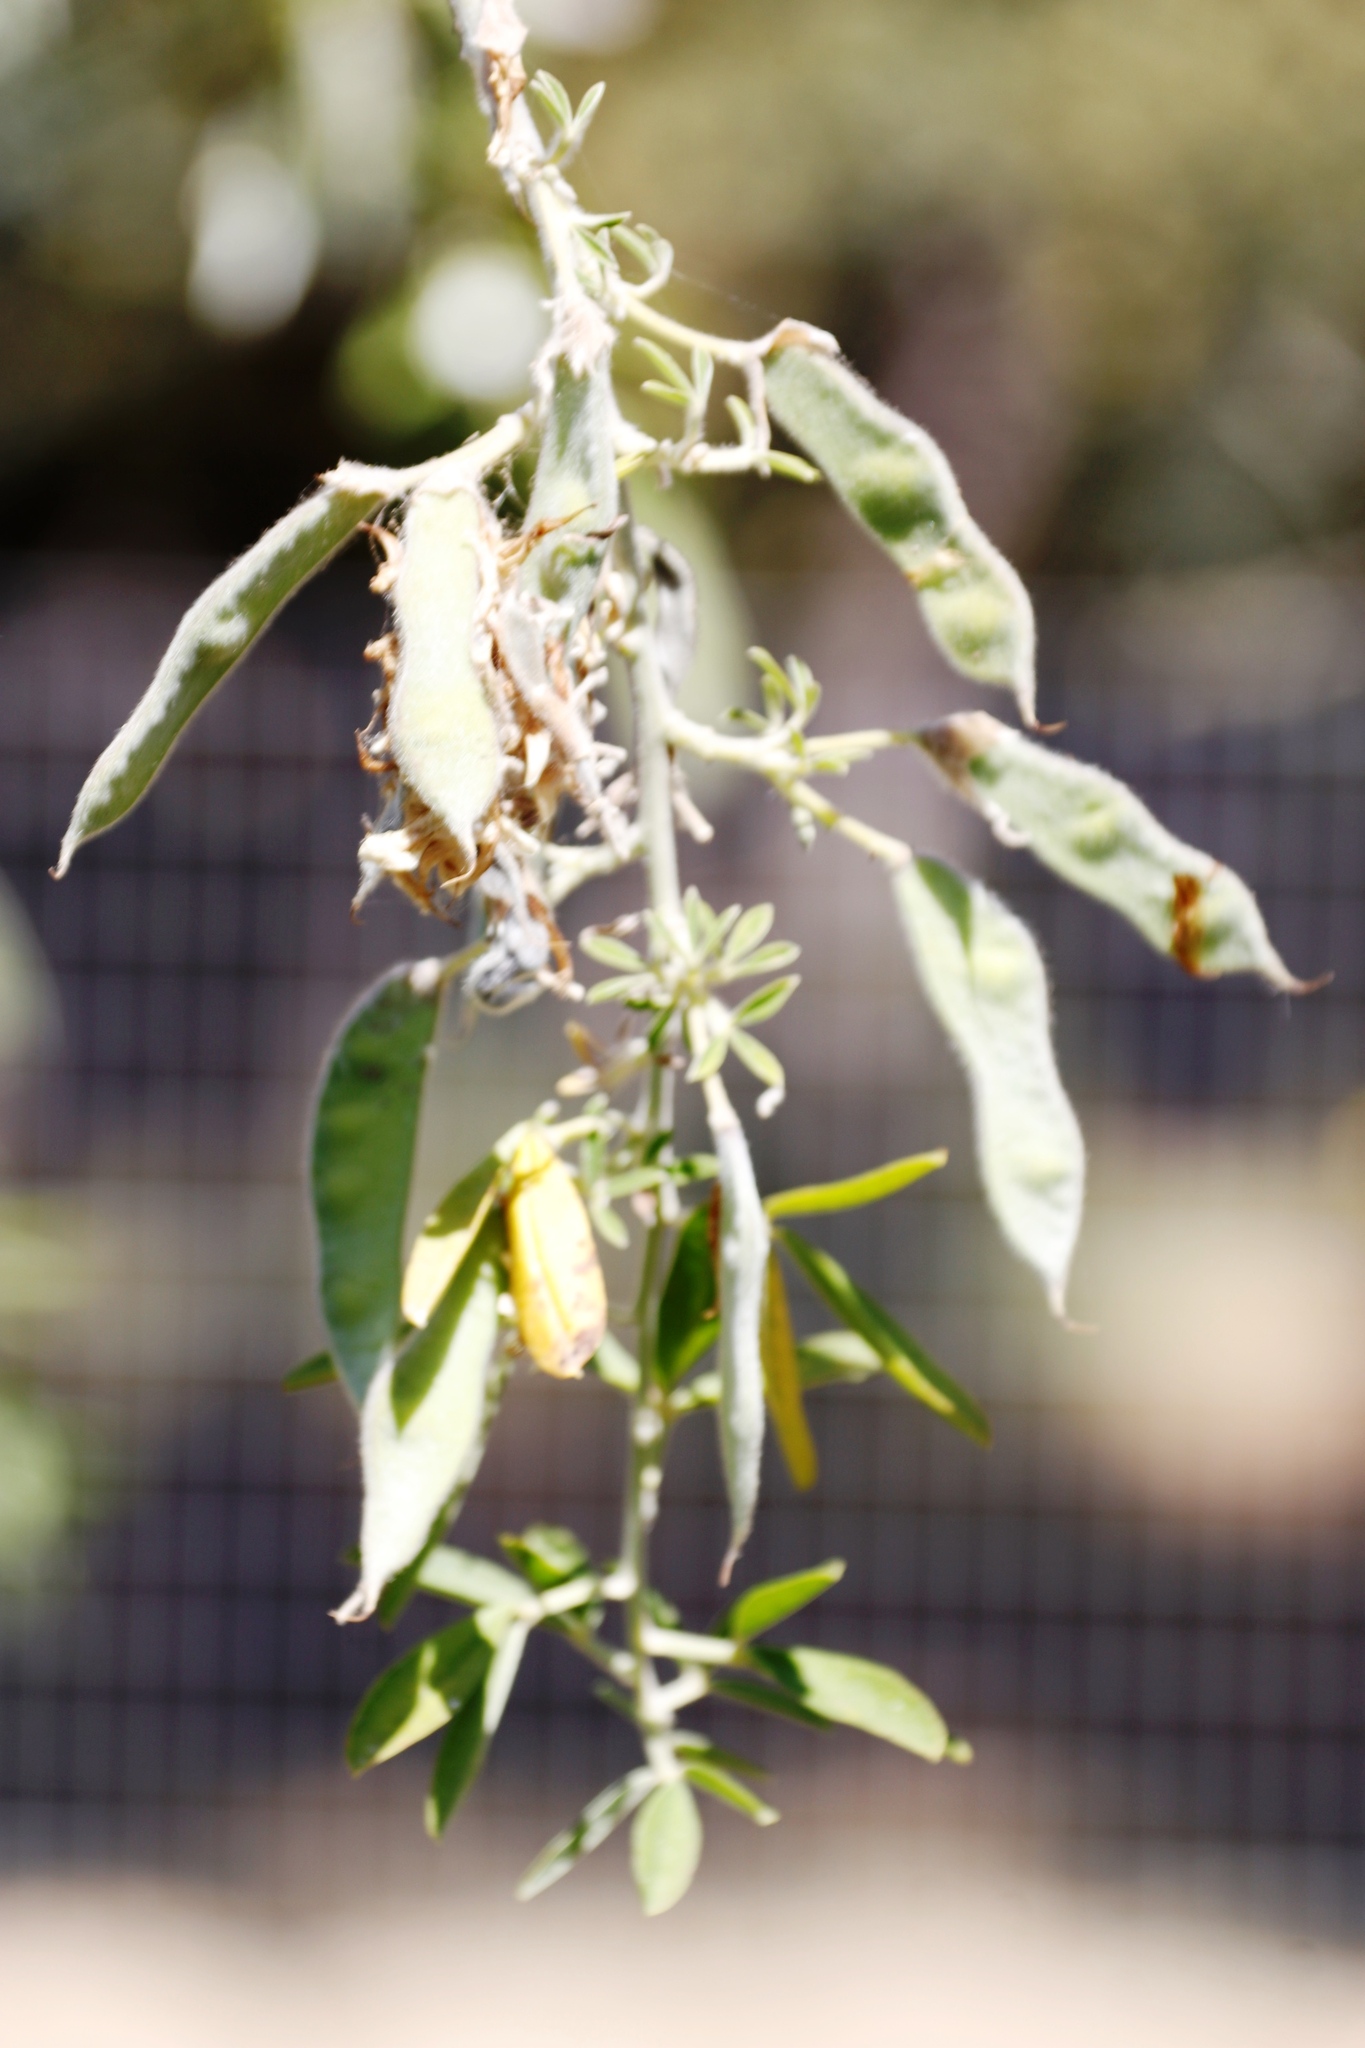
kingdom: Plantae
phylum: Tracheophyta
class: Magnoliopsida
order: Fabales
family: Fabaceae
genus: Chamaecytisus
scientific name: Chamaecytisus prolifer
